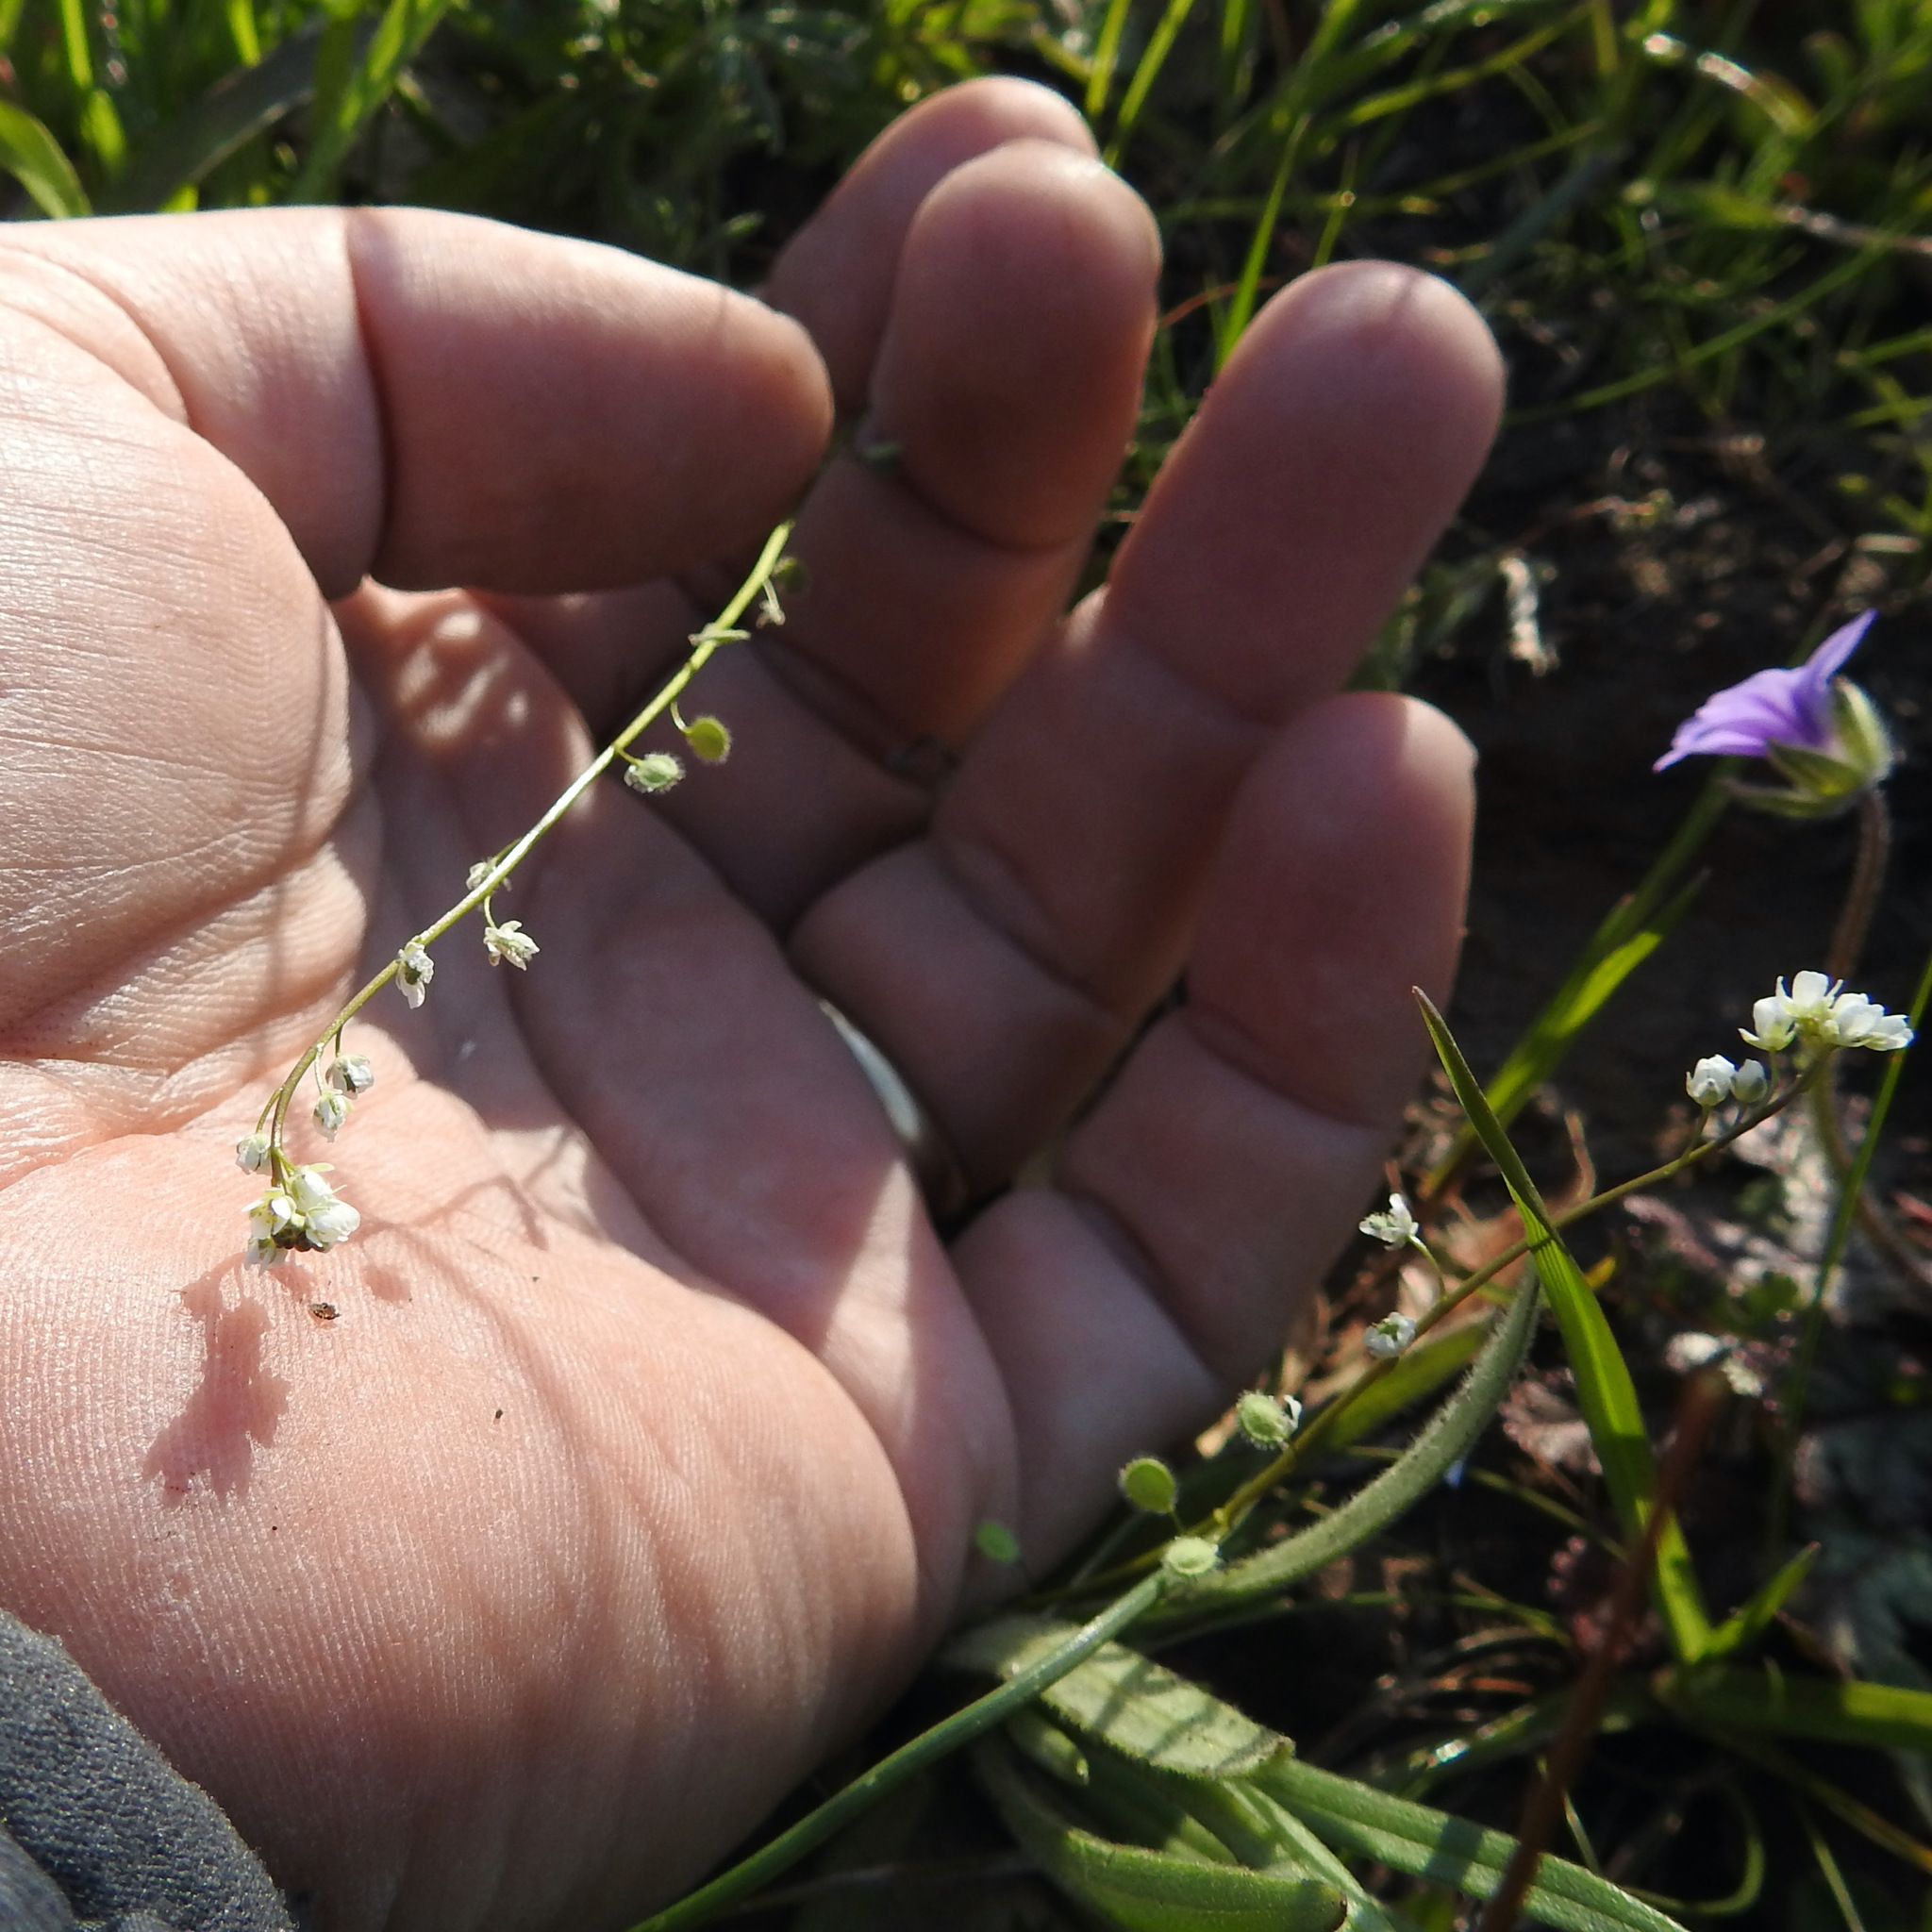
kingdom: Plantae
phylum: Tracheophyta
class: Magnoliopsida
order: Brassicales
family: Brassicaceae
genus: Athysanus
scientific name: Athysanus pusillus
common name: Common sandweed
